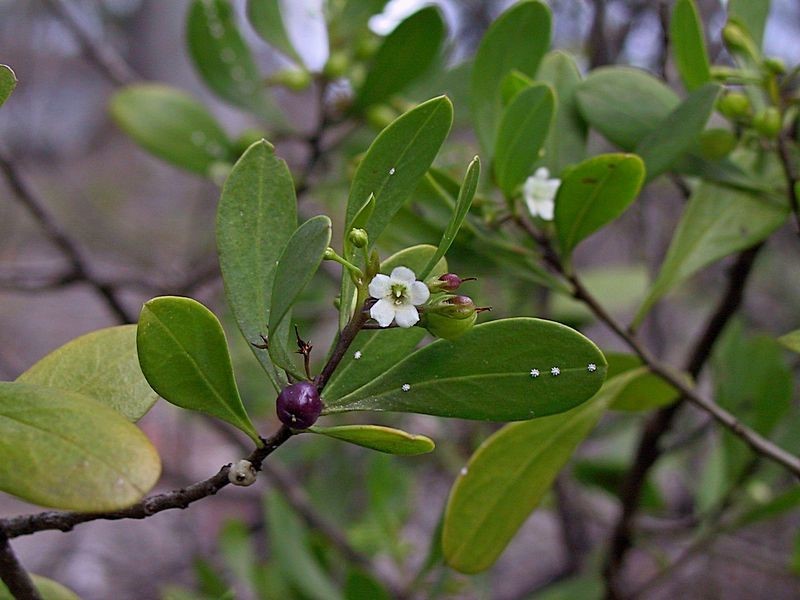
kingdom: Plantae
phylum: Tracheophyta
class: Magnoliopsida
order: Lamiales
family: Scrophulariaceae
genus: Myoporum
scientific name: Myoporum boninense
